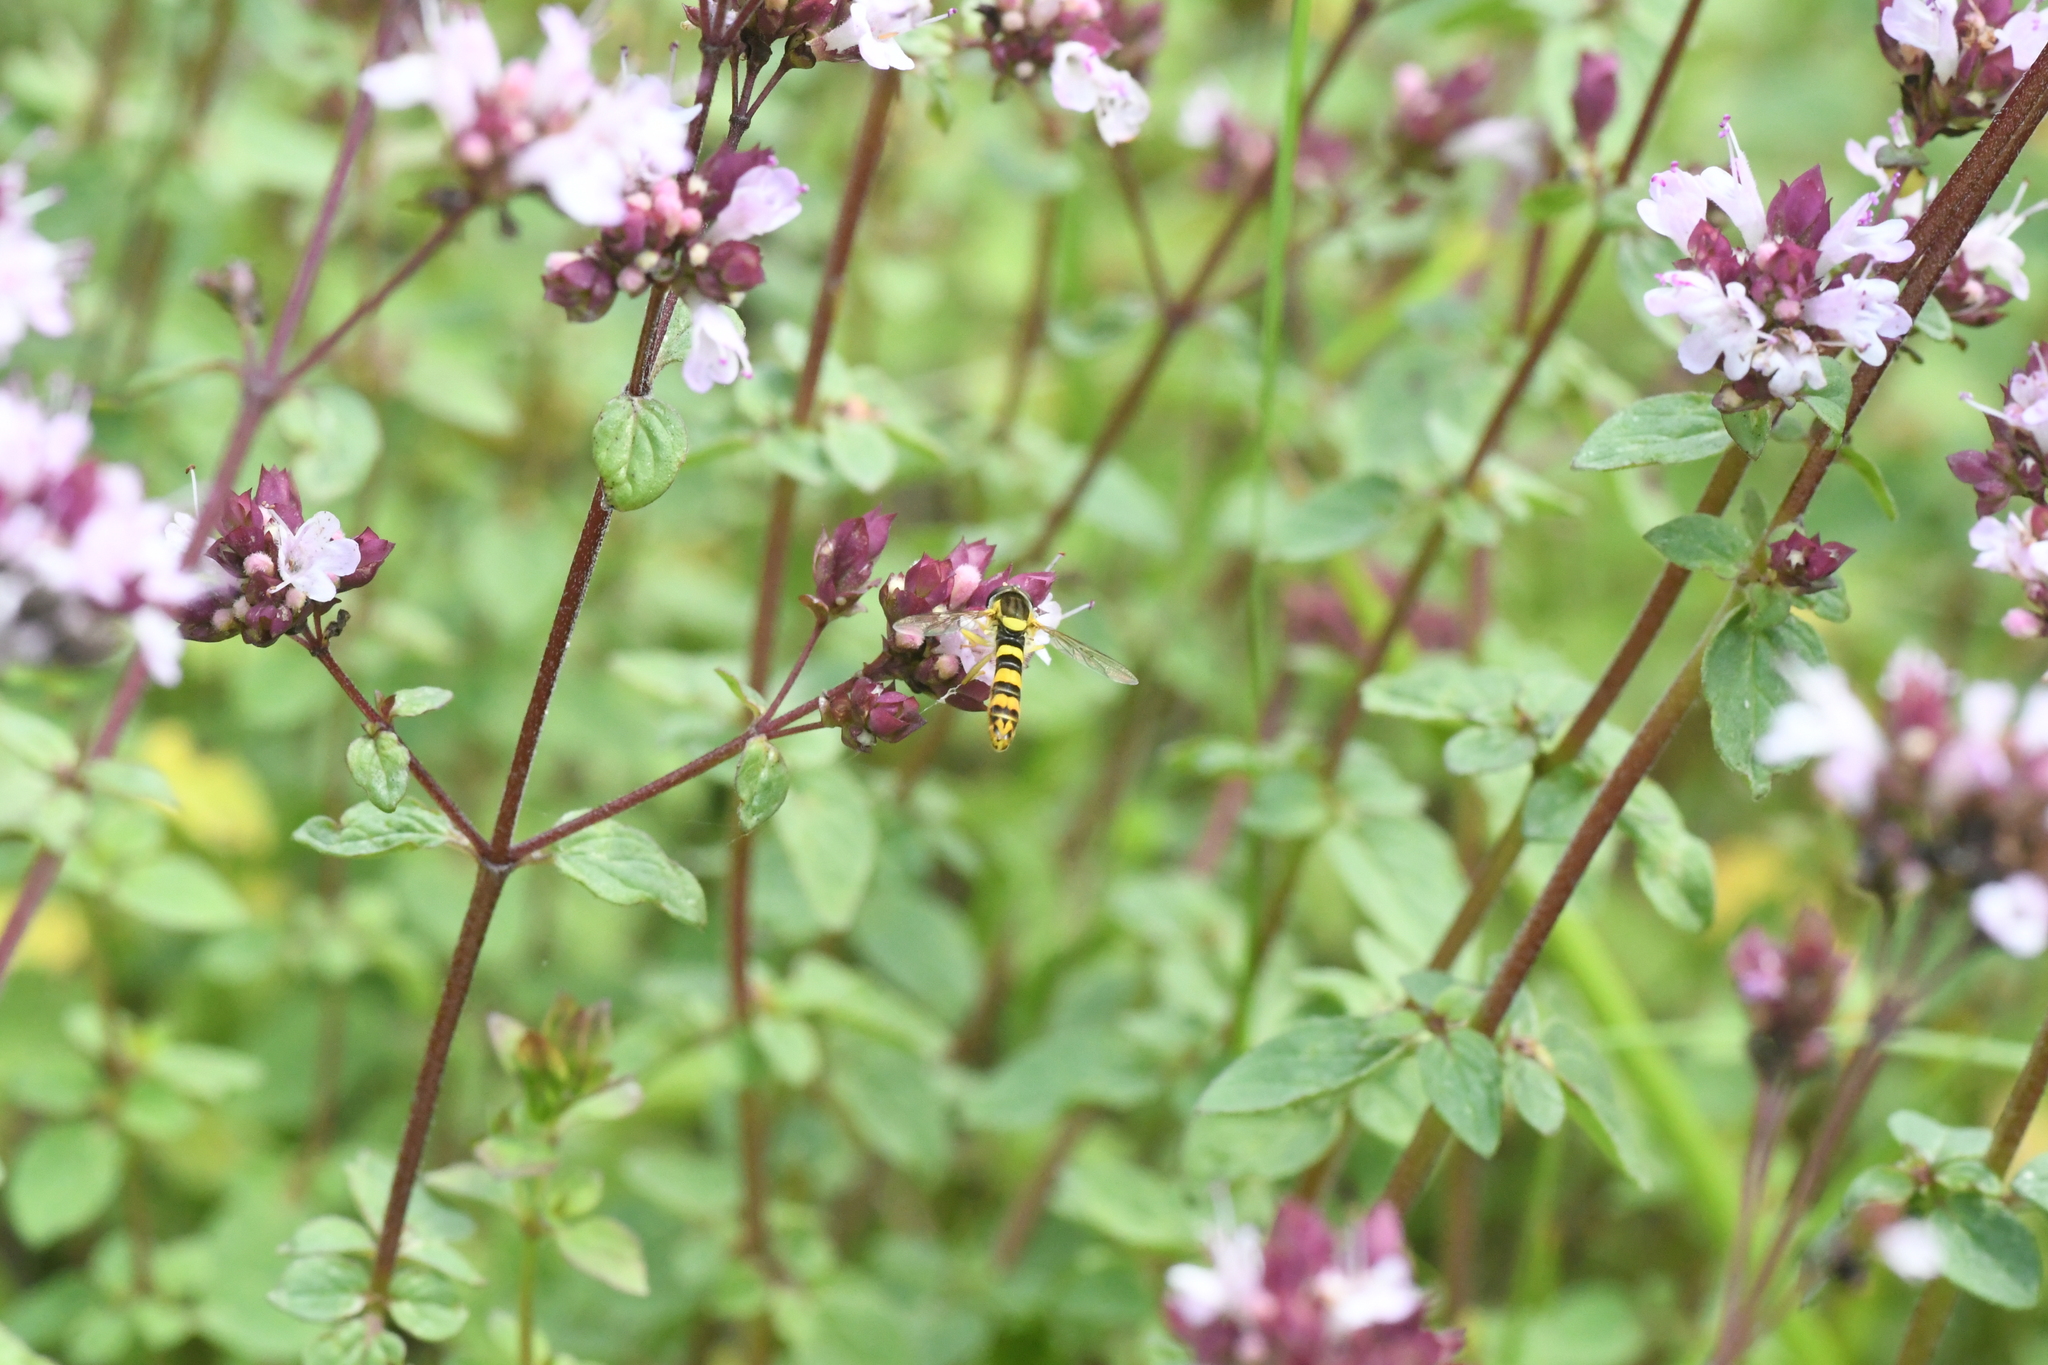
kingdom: Animalia
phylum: Arthropoda
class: Insecta
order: Diptera
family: Syrphidae
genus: Sphaerophoria
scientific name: Sphaerophoria scripta
